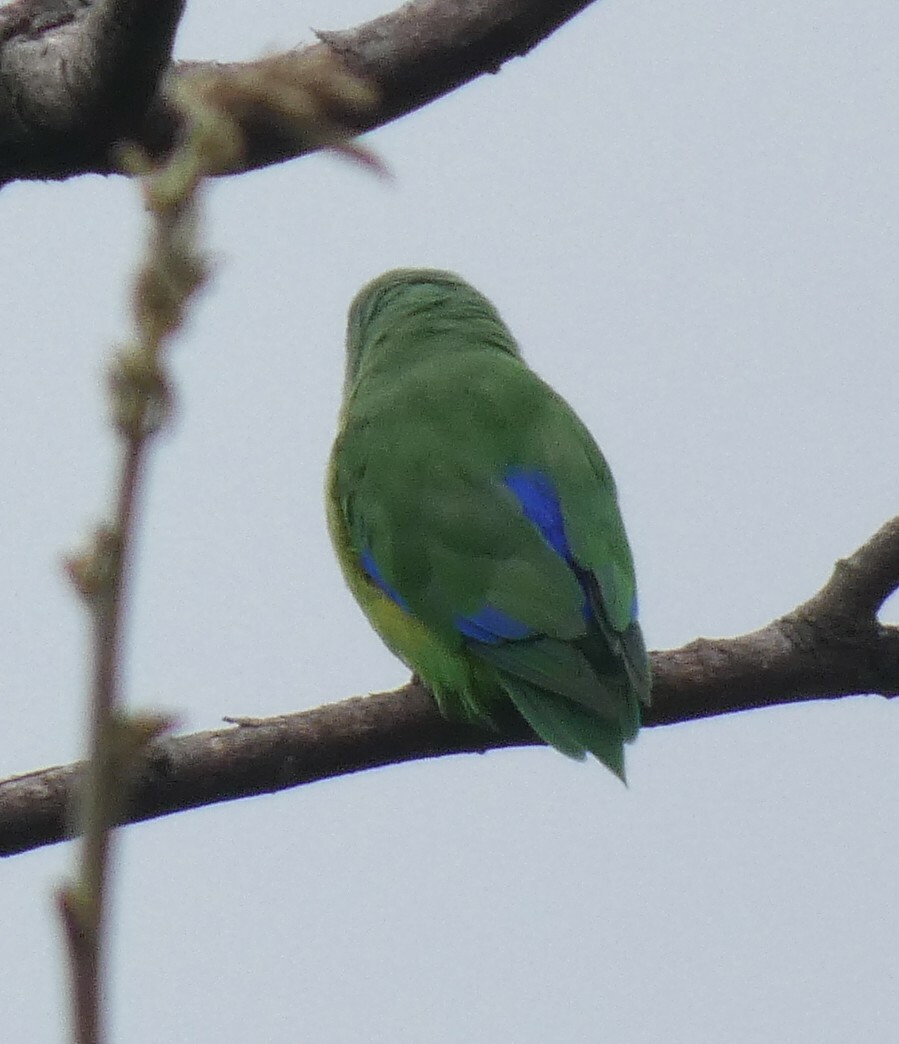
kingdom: Animalia
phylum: Chordata
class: Aves
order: Psittaciformes
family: Psittacidae
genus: Forpus
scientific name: Forpus xanthopterygius
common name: Blue-winged parrotlet
